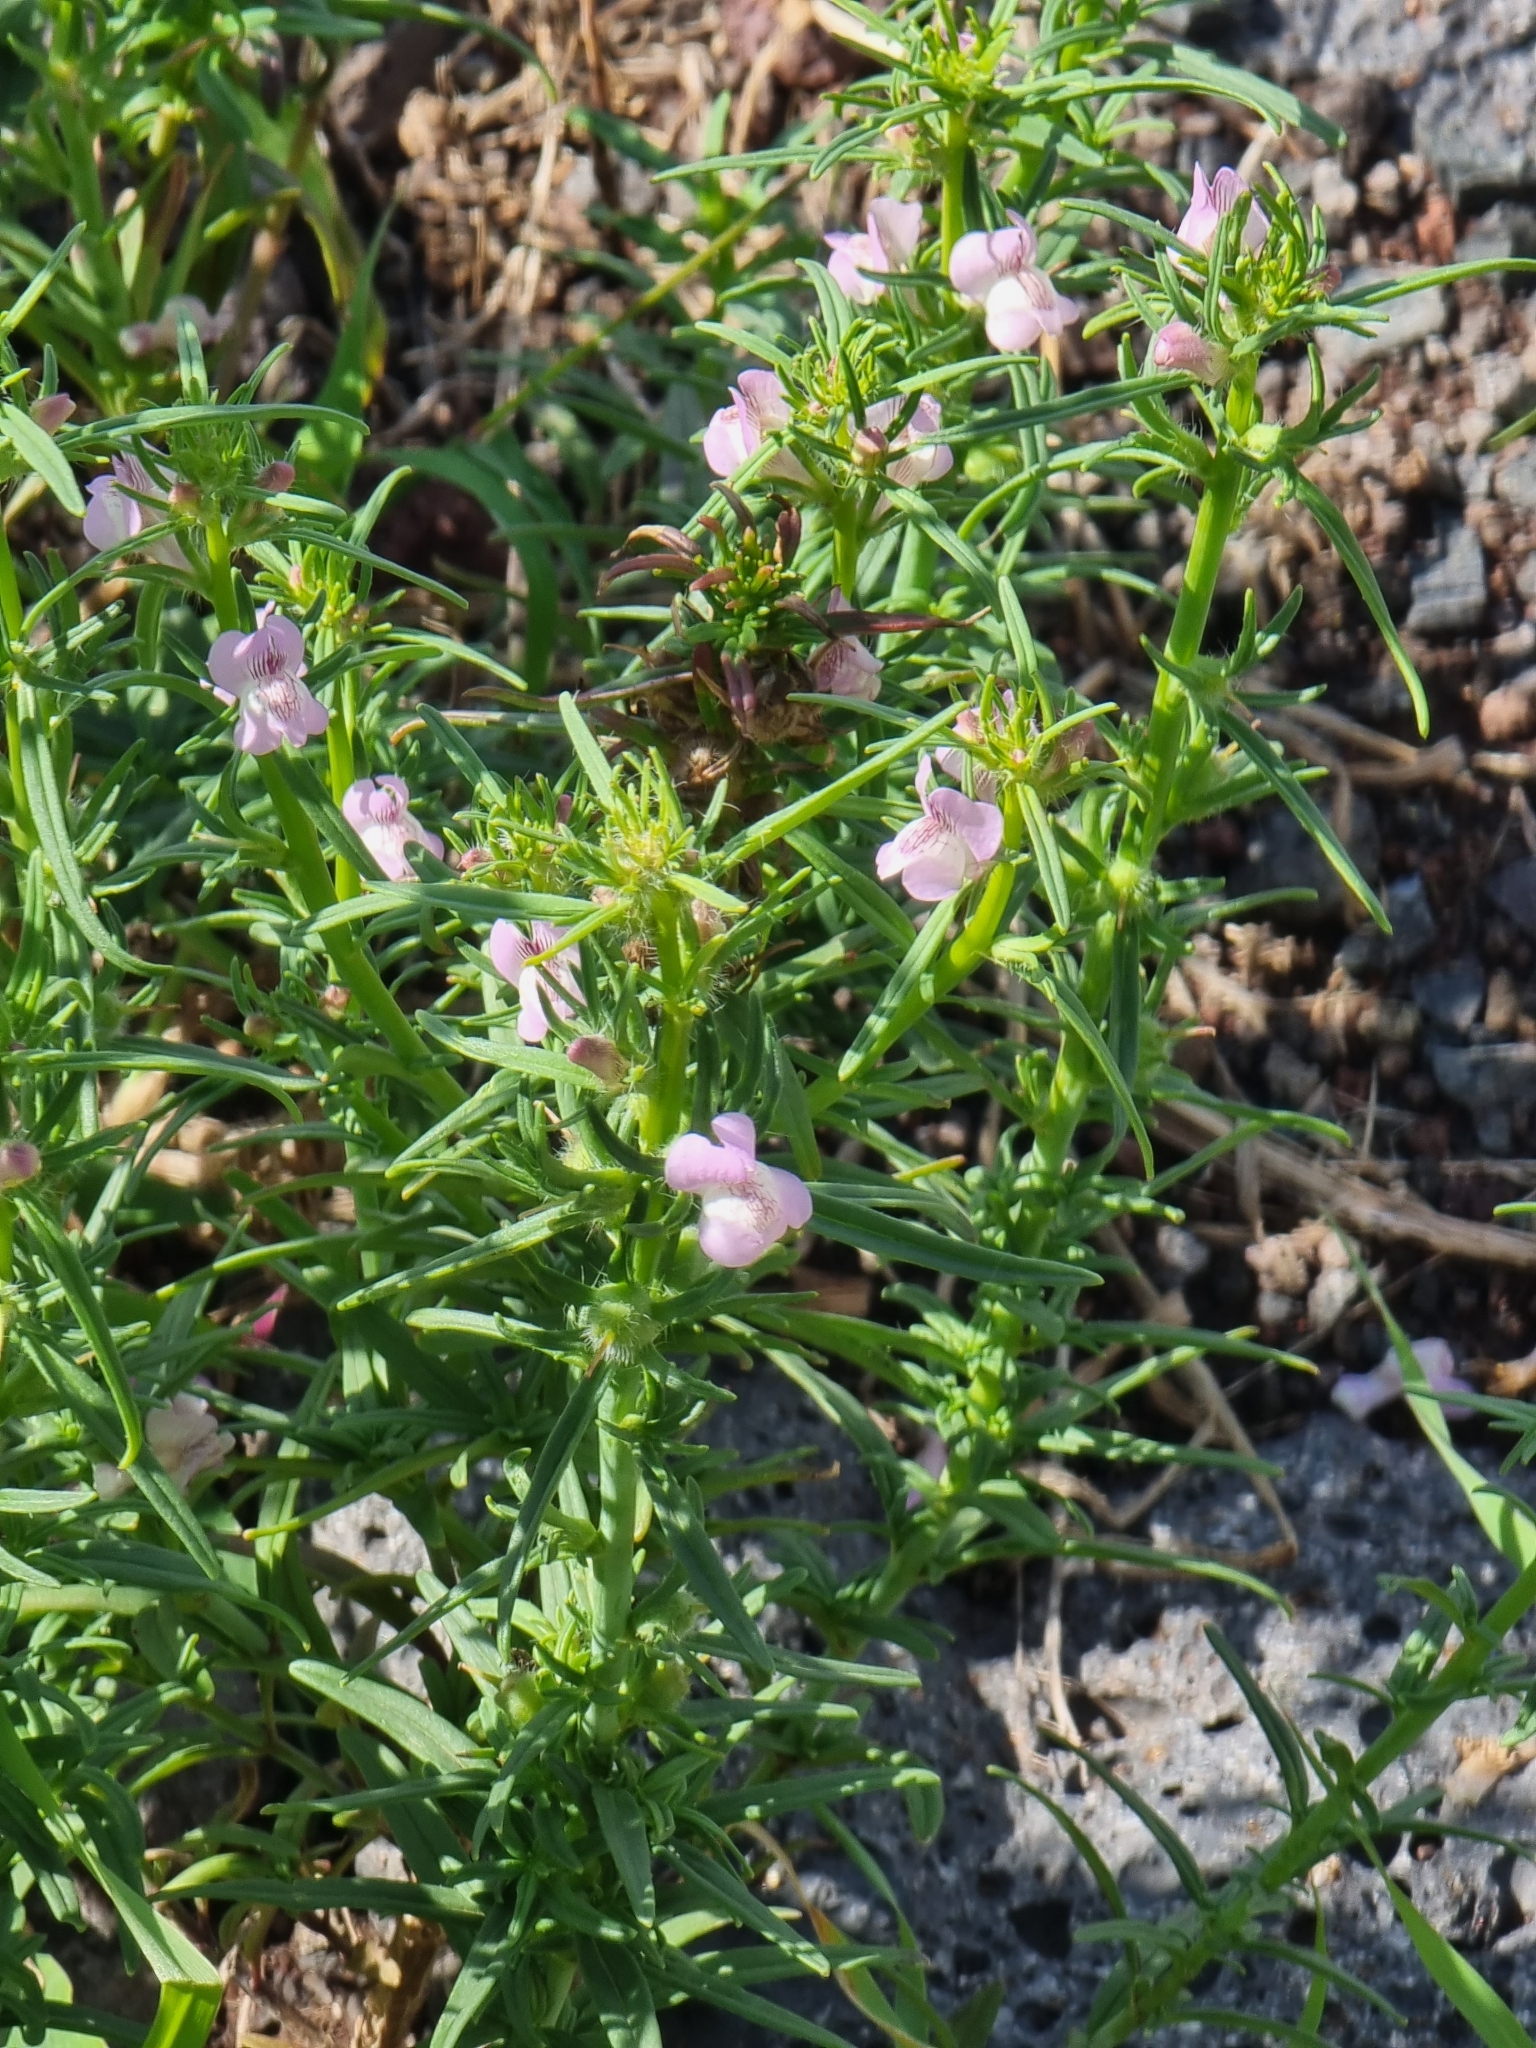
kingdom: Plantae
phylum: Tracheophyta
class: Magnoliopsida
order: Lamiales
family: Plantaginaceae
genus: Misopates
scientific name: Misopates orontium
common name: Weasel's-snout
